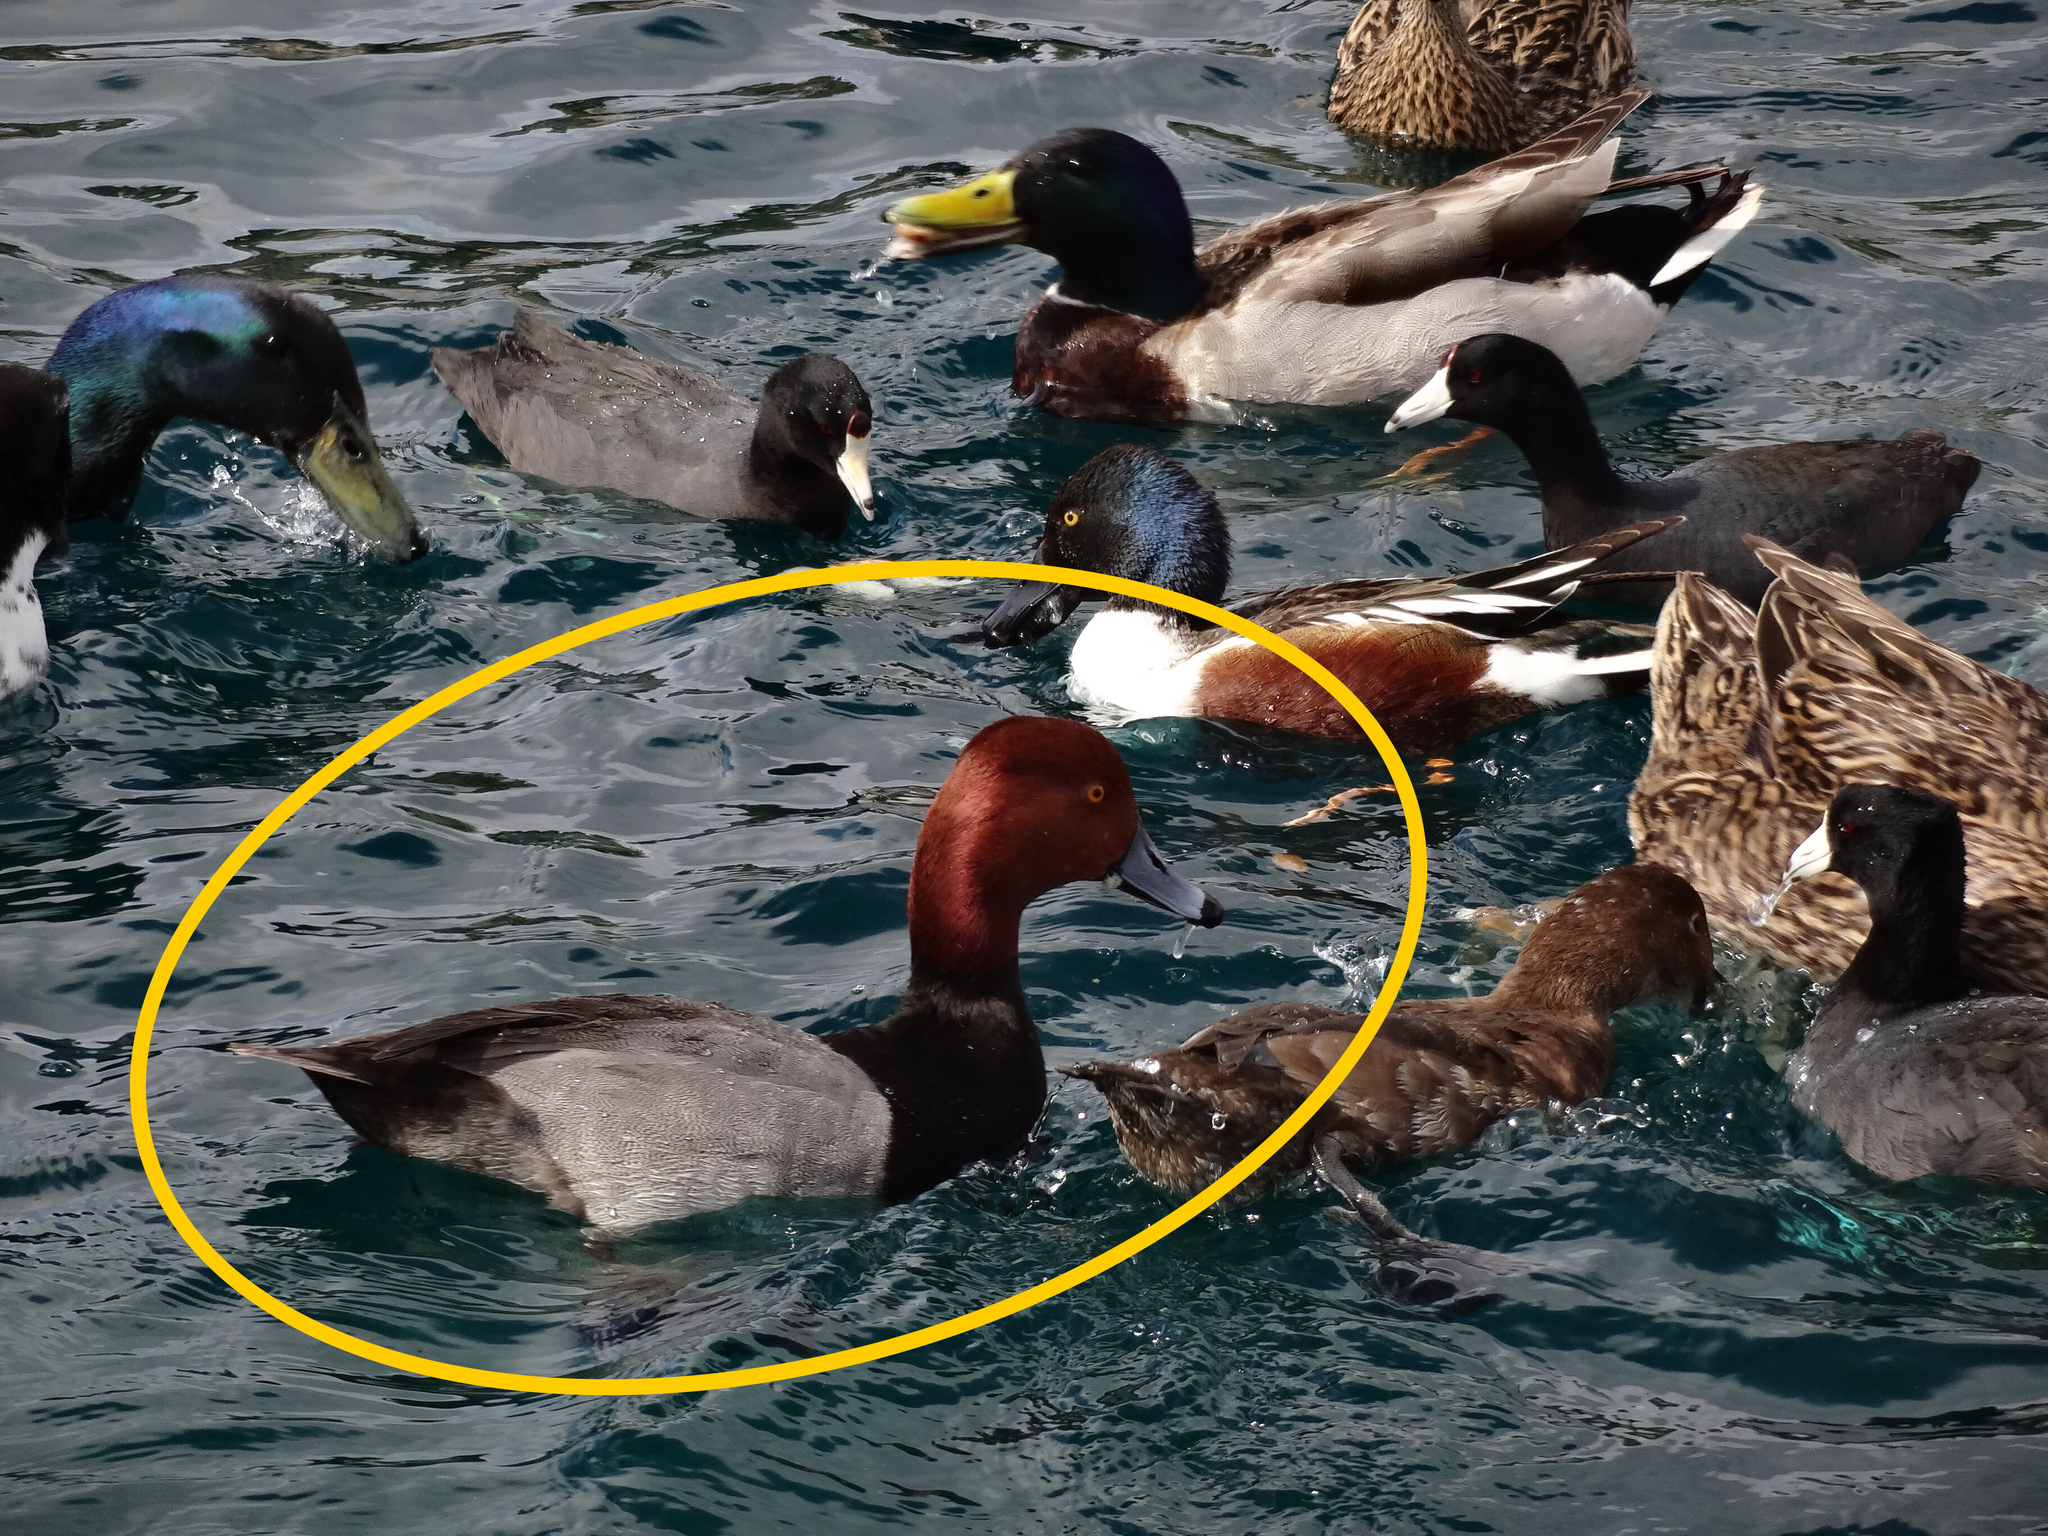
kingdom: Animalia
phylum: Chordata
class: Aves
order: Anseriformes
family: Anatidae
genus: Aythya
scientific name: Aythya americana
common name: Redhead
